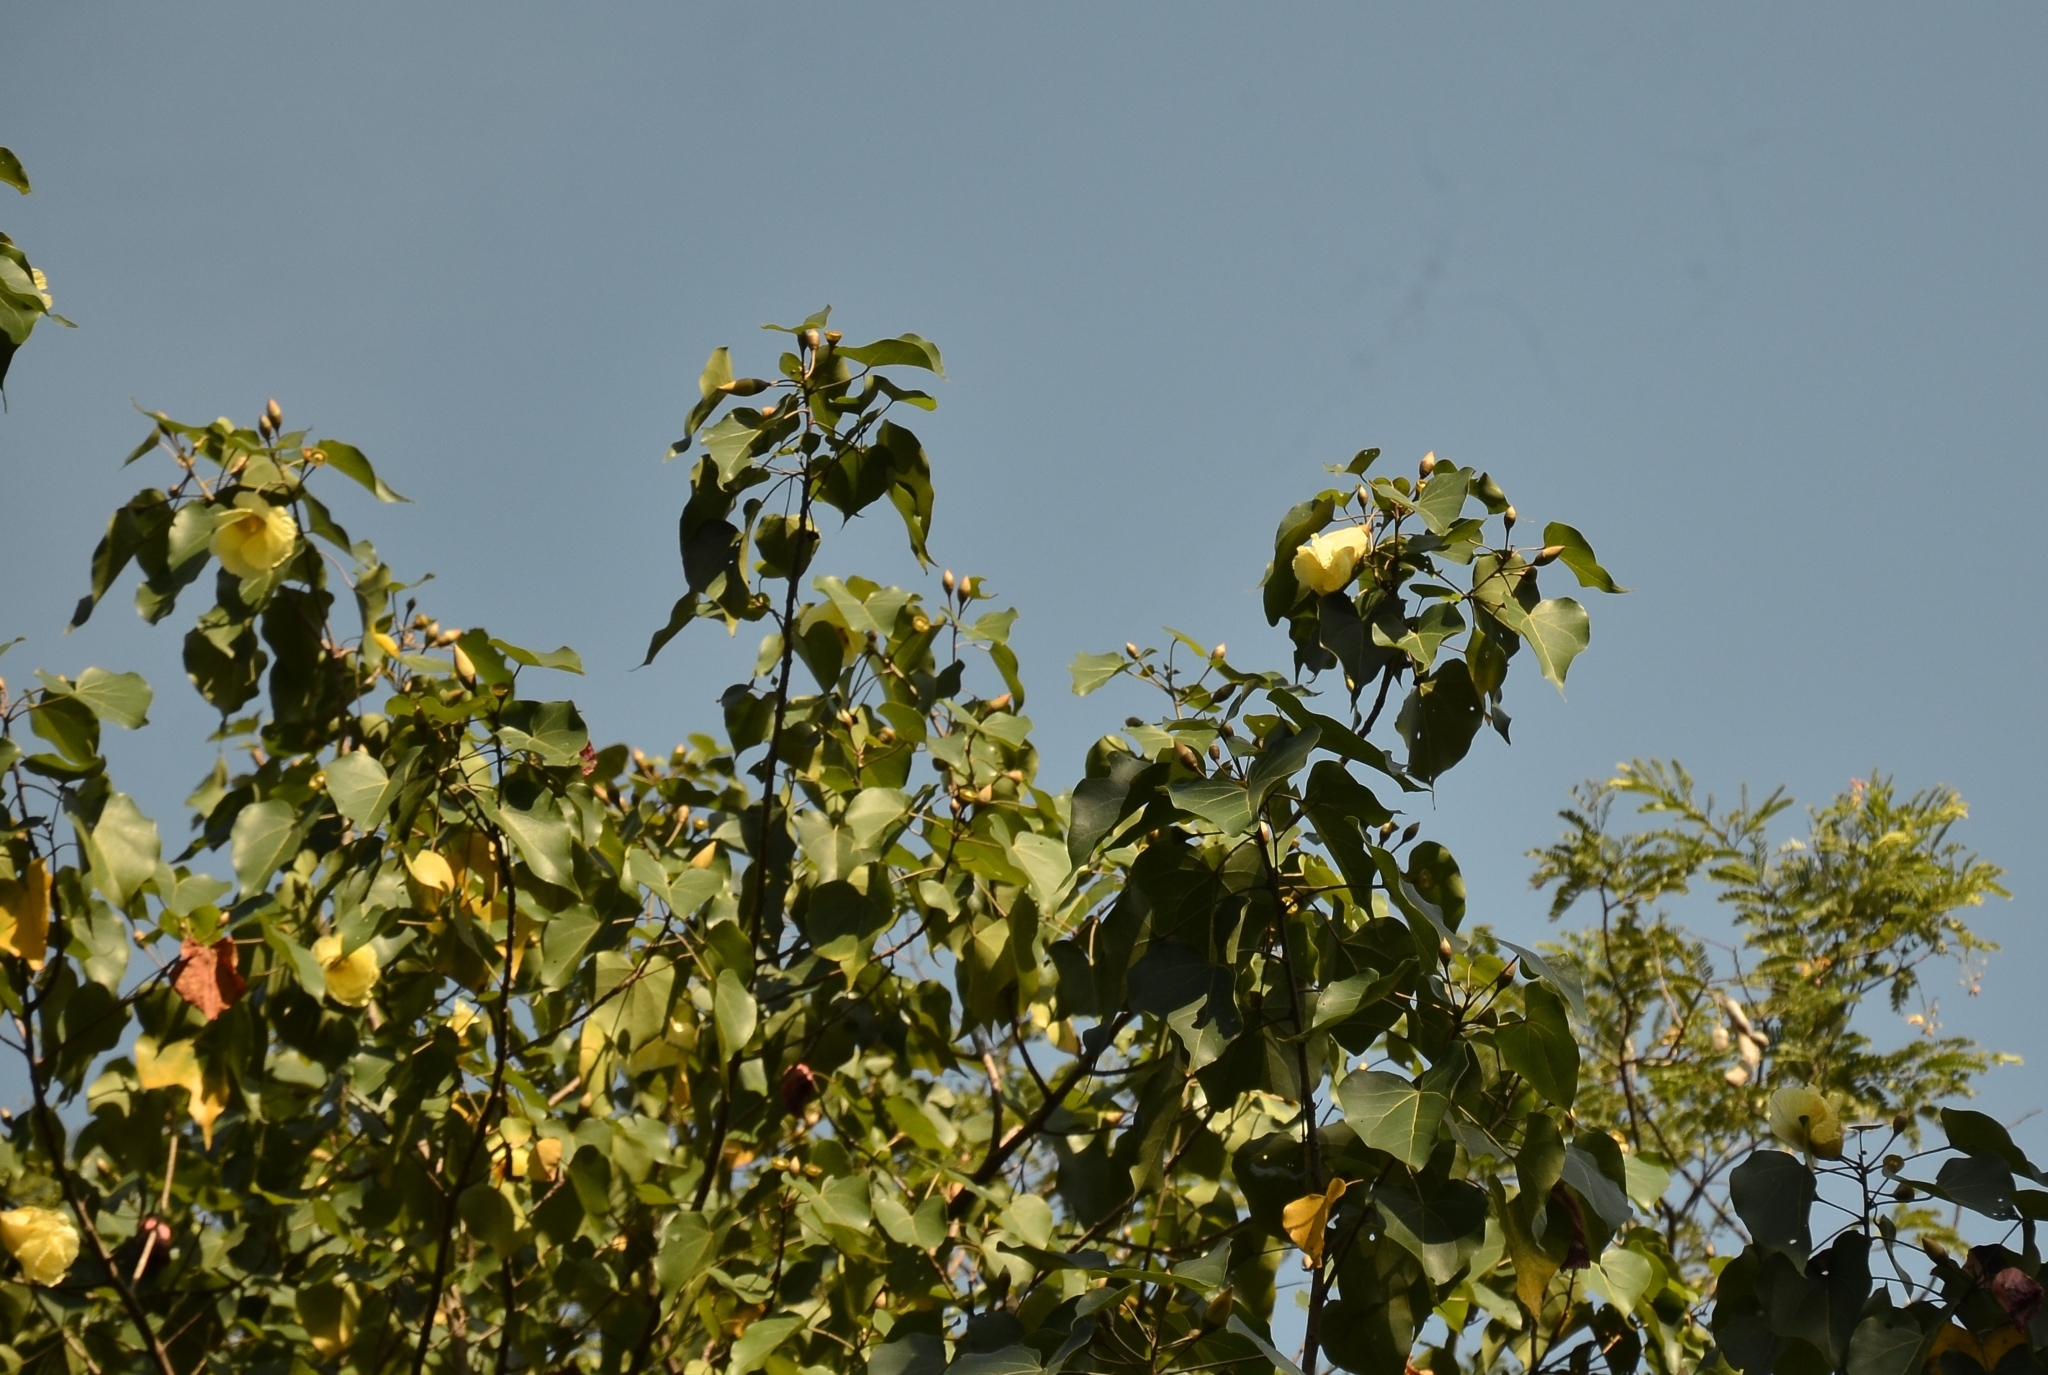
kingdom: Plantae
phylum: Tracheophyta
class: Magnoliopsida
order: Malvales
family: Malvaceae
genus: Thespesia
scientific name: Thespesia populnea
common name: Seaside mahoe
